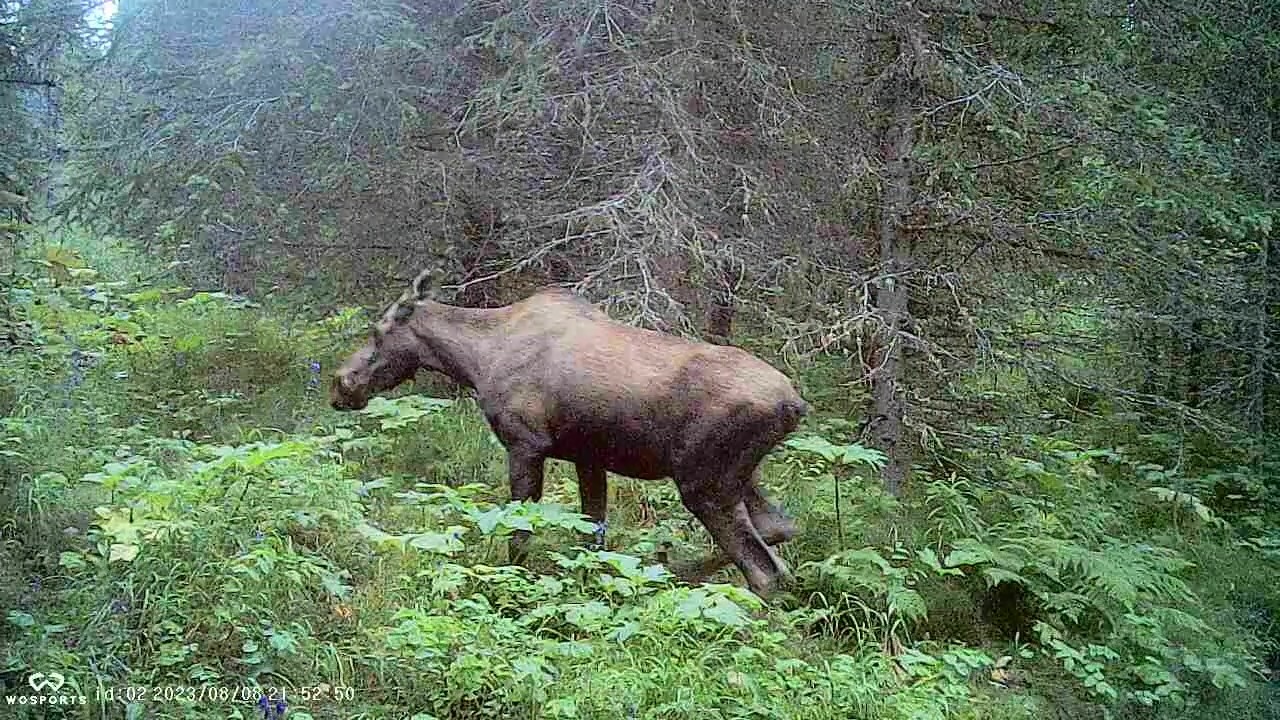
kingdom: Animalia
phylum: Chordata
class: Mammalia
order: Artiodactyla
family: Cervidae
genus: Alces
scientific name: Alces alces
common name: Moose
